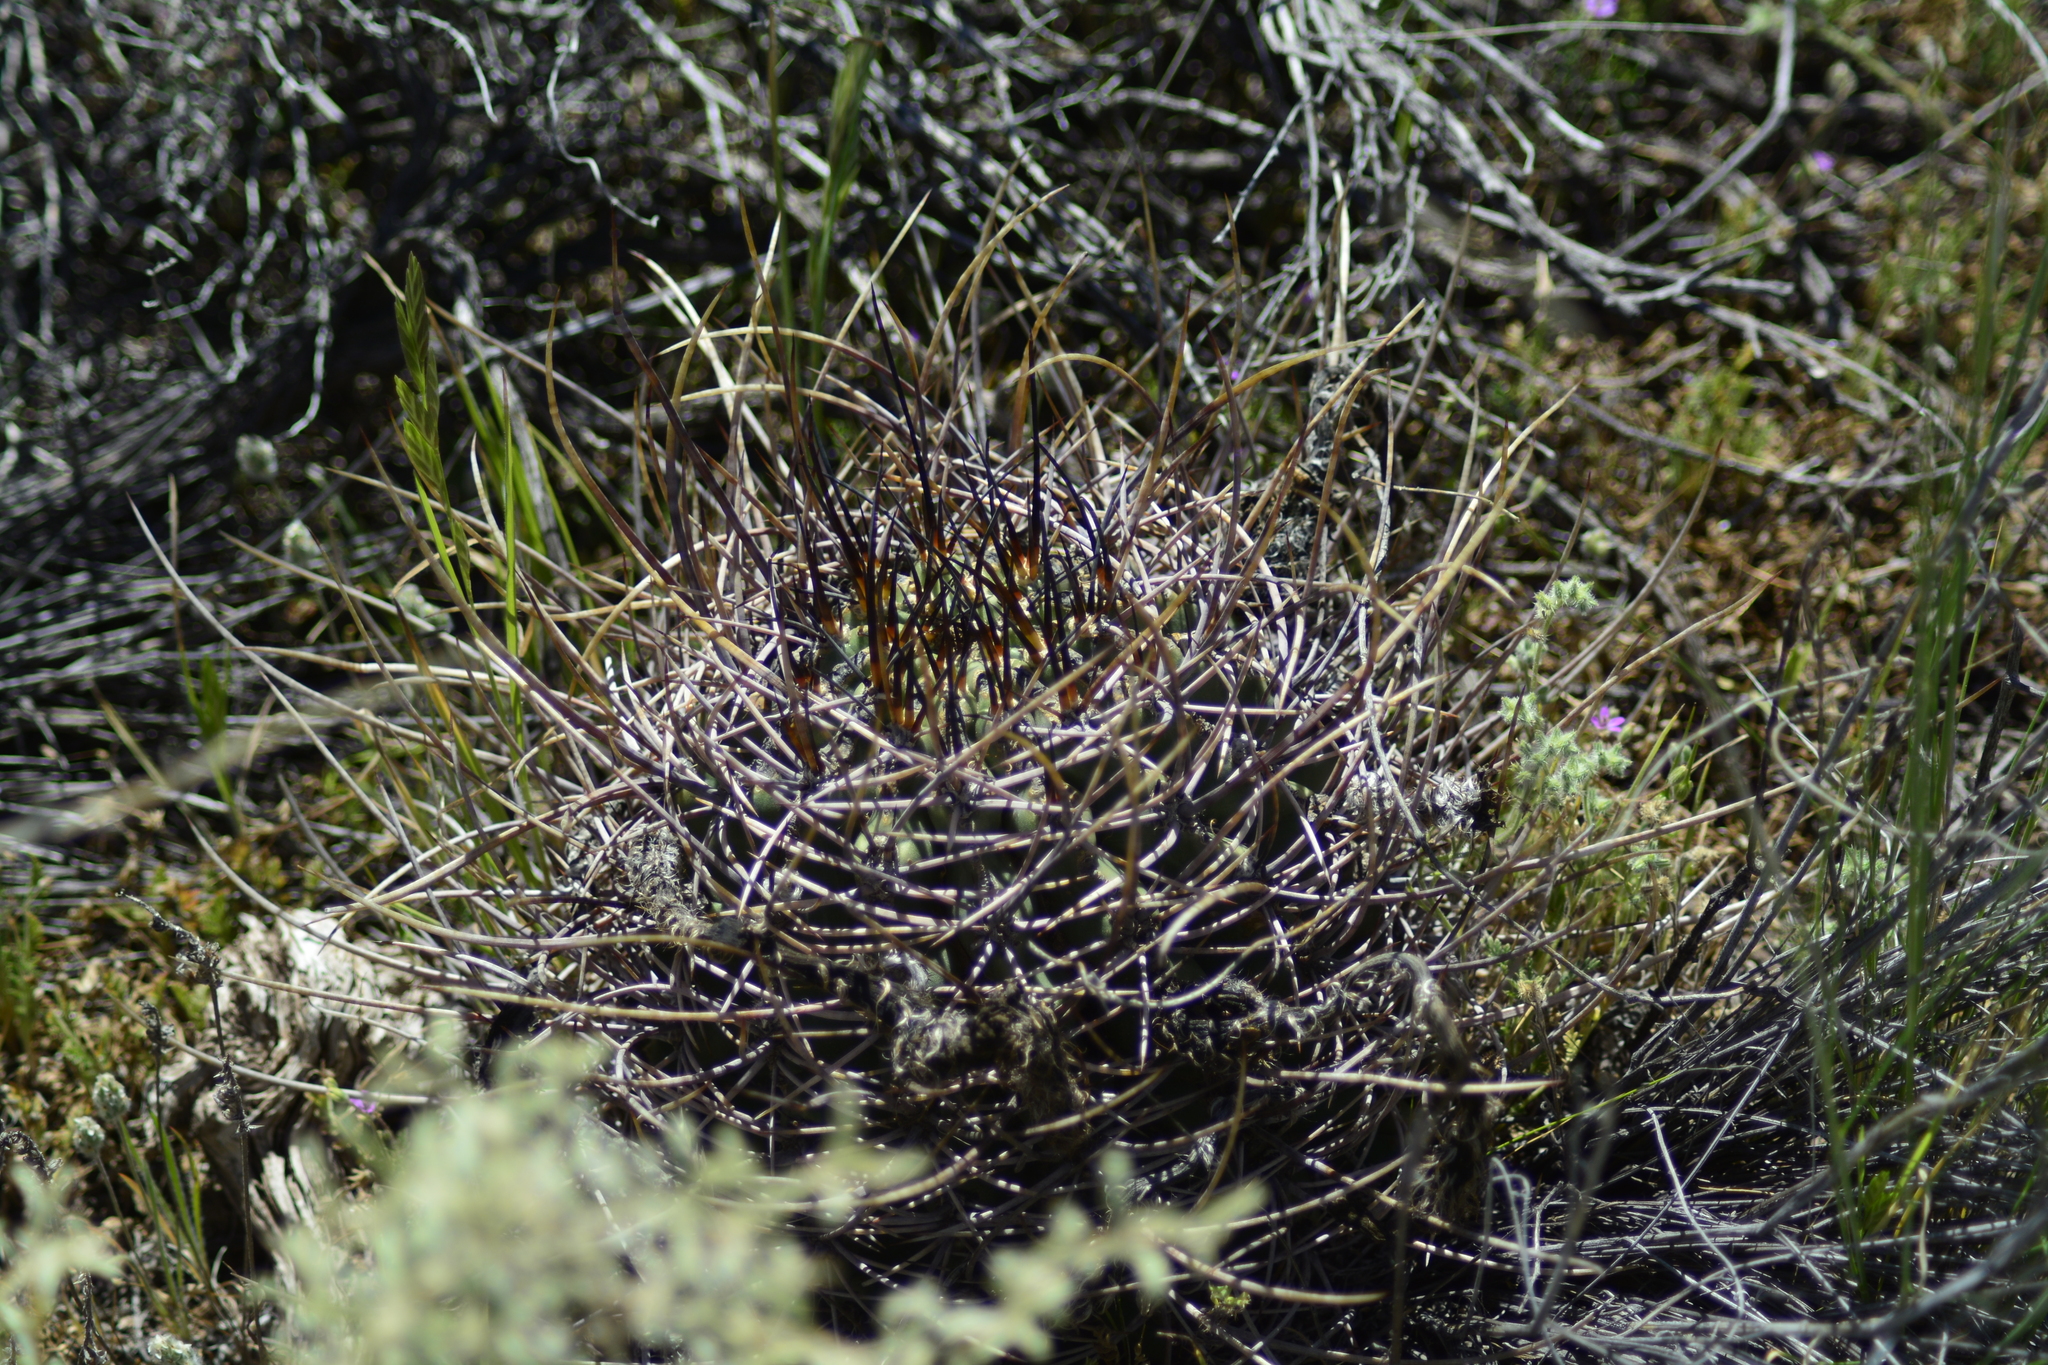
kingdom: Plantae
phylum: Tracheophyta
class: Magnoliopsida
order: Caryophyllales
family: Cactaceae
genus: Acanthocalycium
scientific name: Acanthocalycium leucanthum
